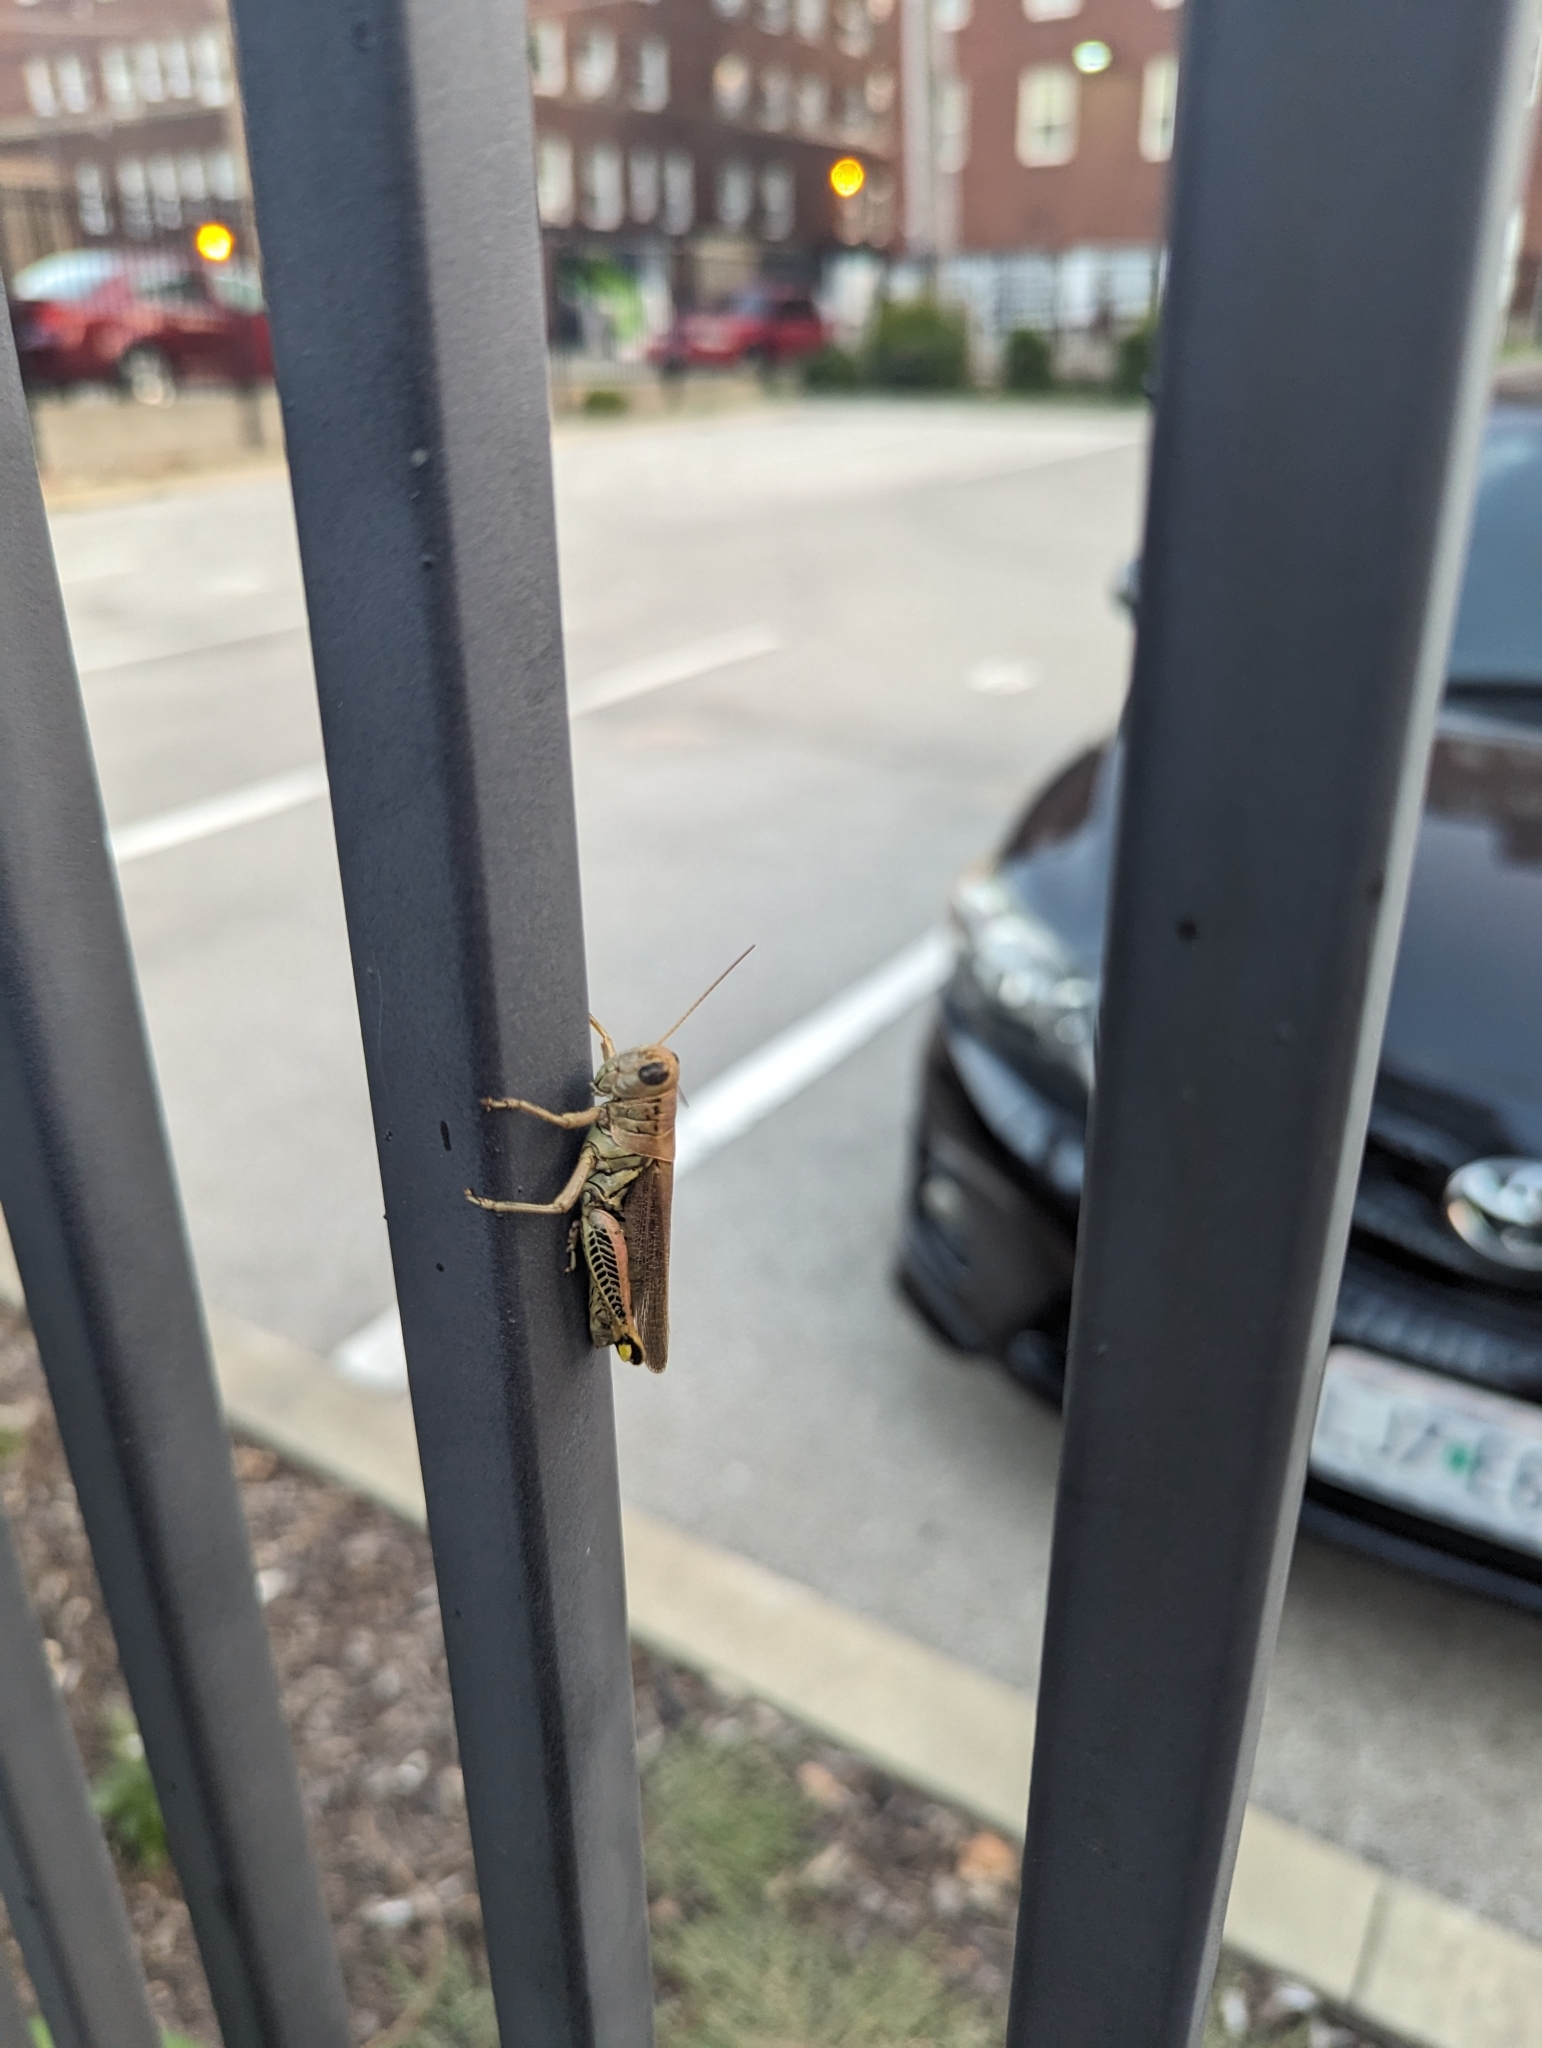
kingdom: Animalia
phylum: Arthropoda
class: Insecta
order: Orthoptera
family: Acrididae
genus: Melanoplus
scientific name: Melanoplus differentialis
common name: Differential grasshopper
